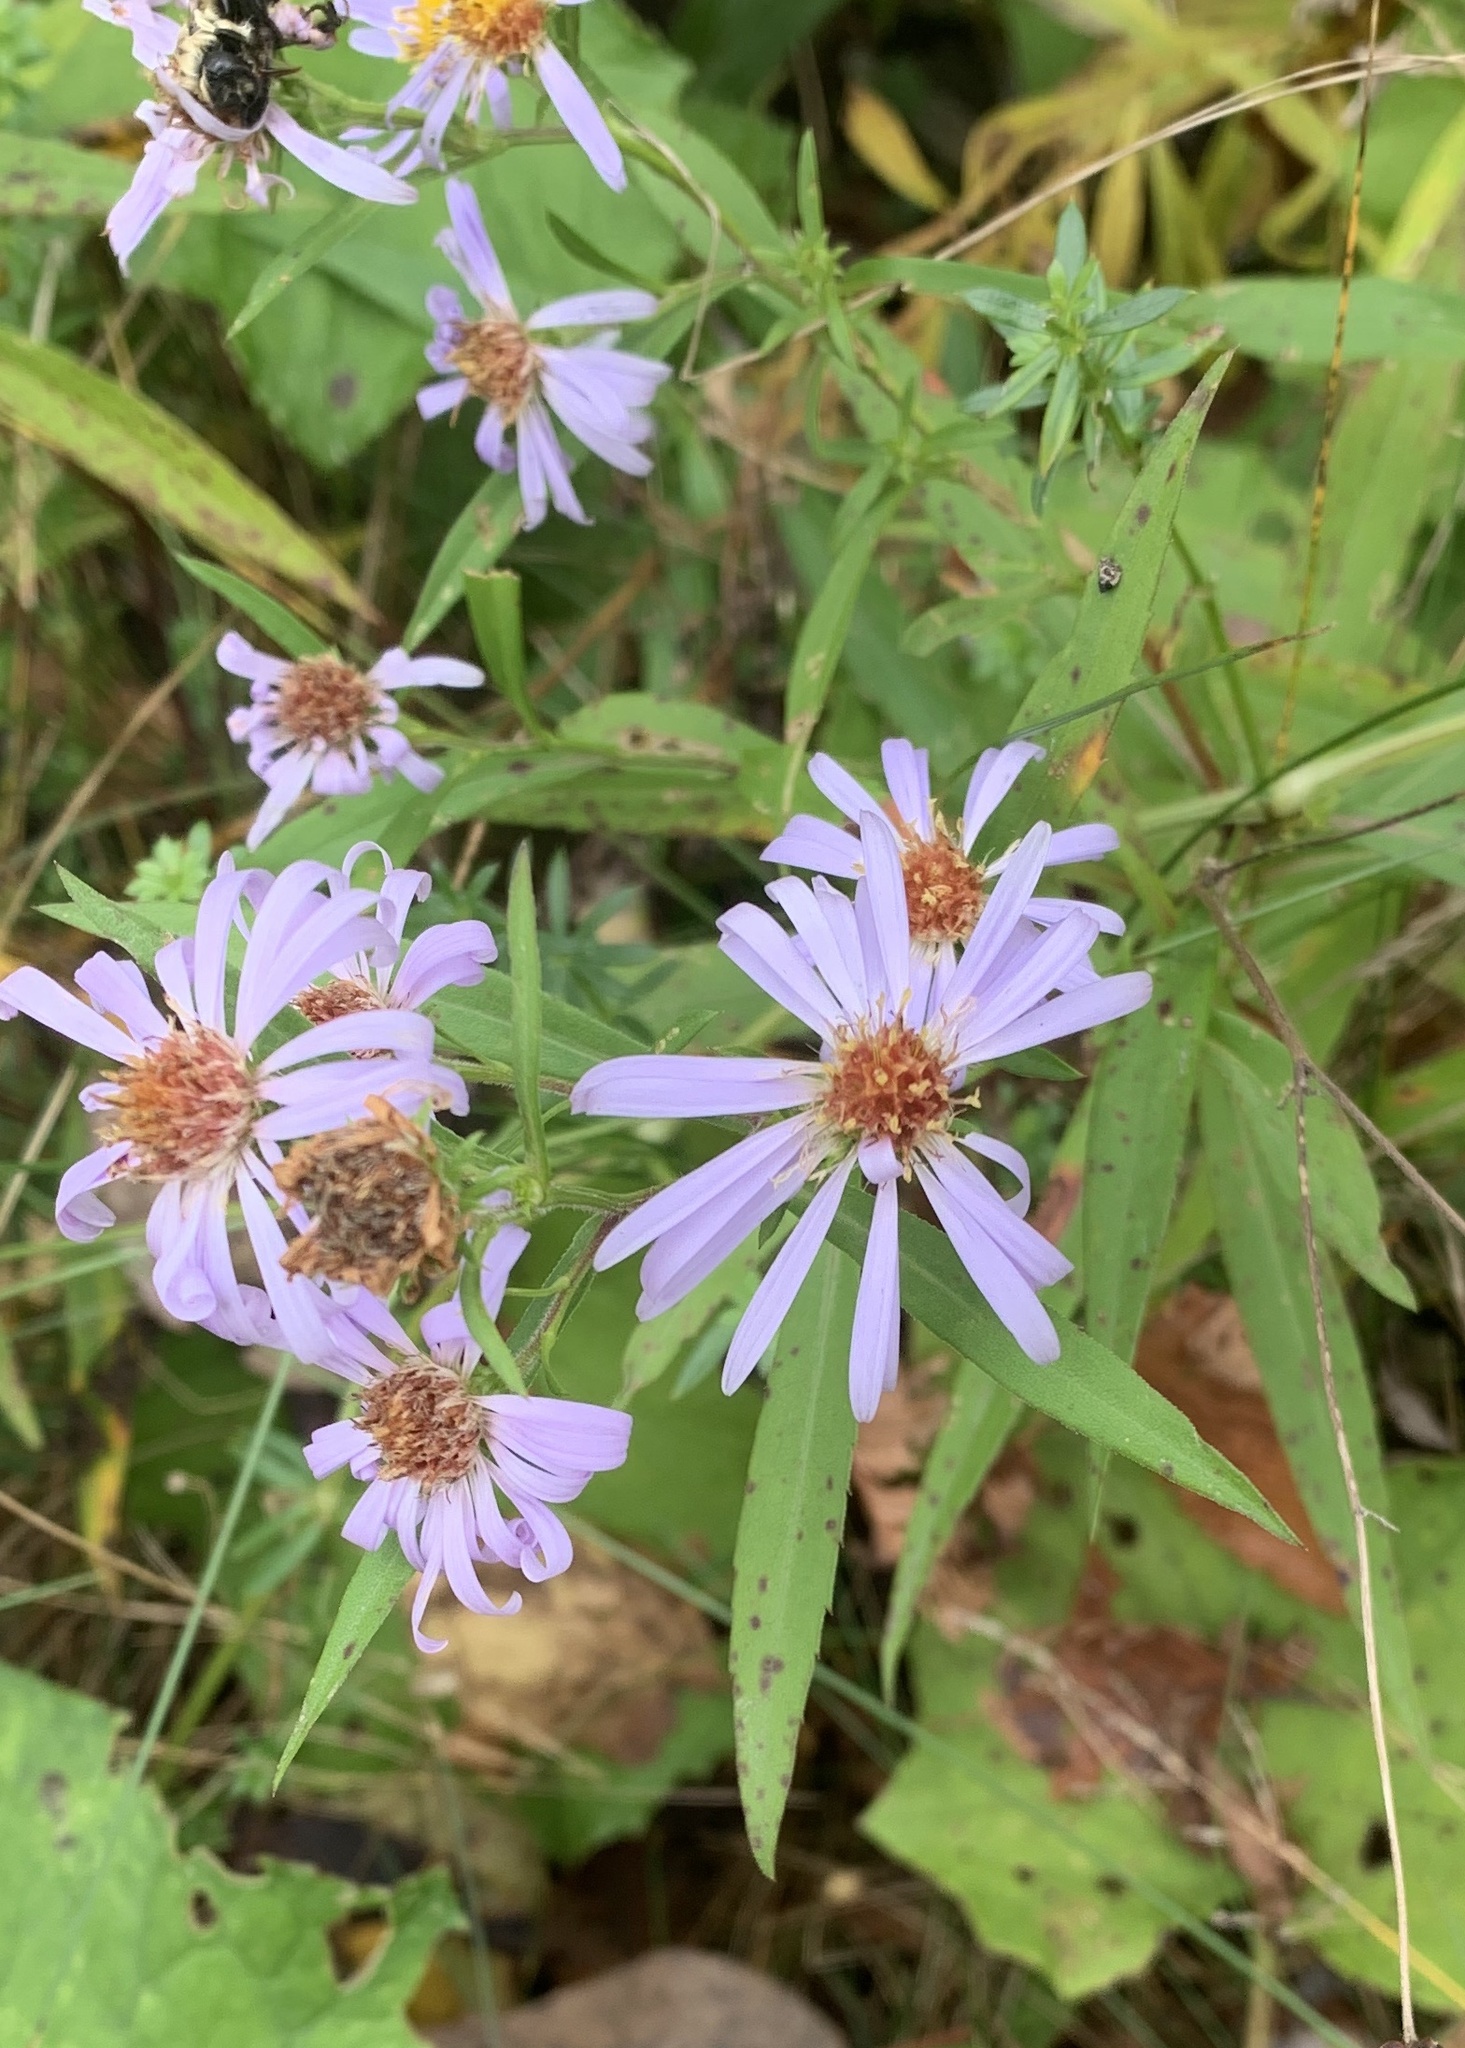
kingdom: Plantae
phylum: Tracheophyta
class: Magnoliopsida
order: Asterales
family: Asteraceae
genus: Symphyotrichum
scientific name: Symphyotrichum novi-belgii
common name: Michaelmas daisy
